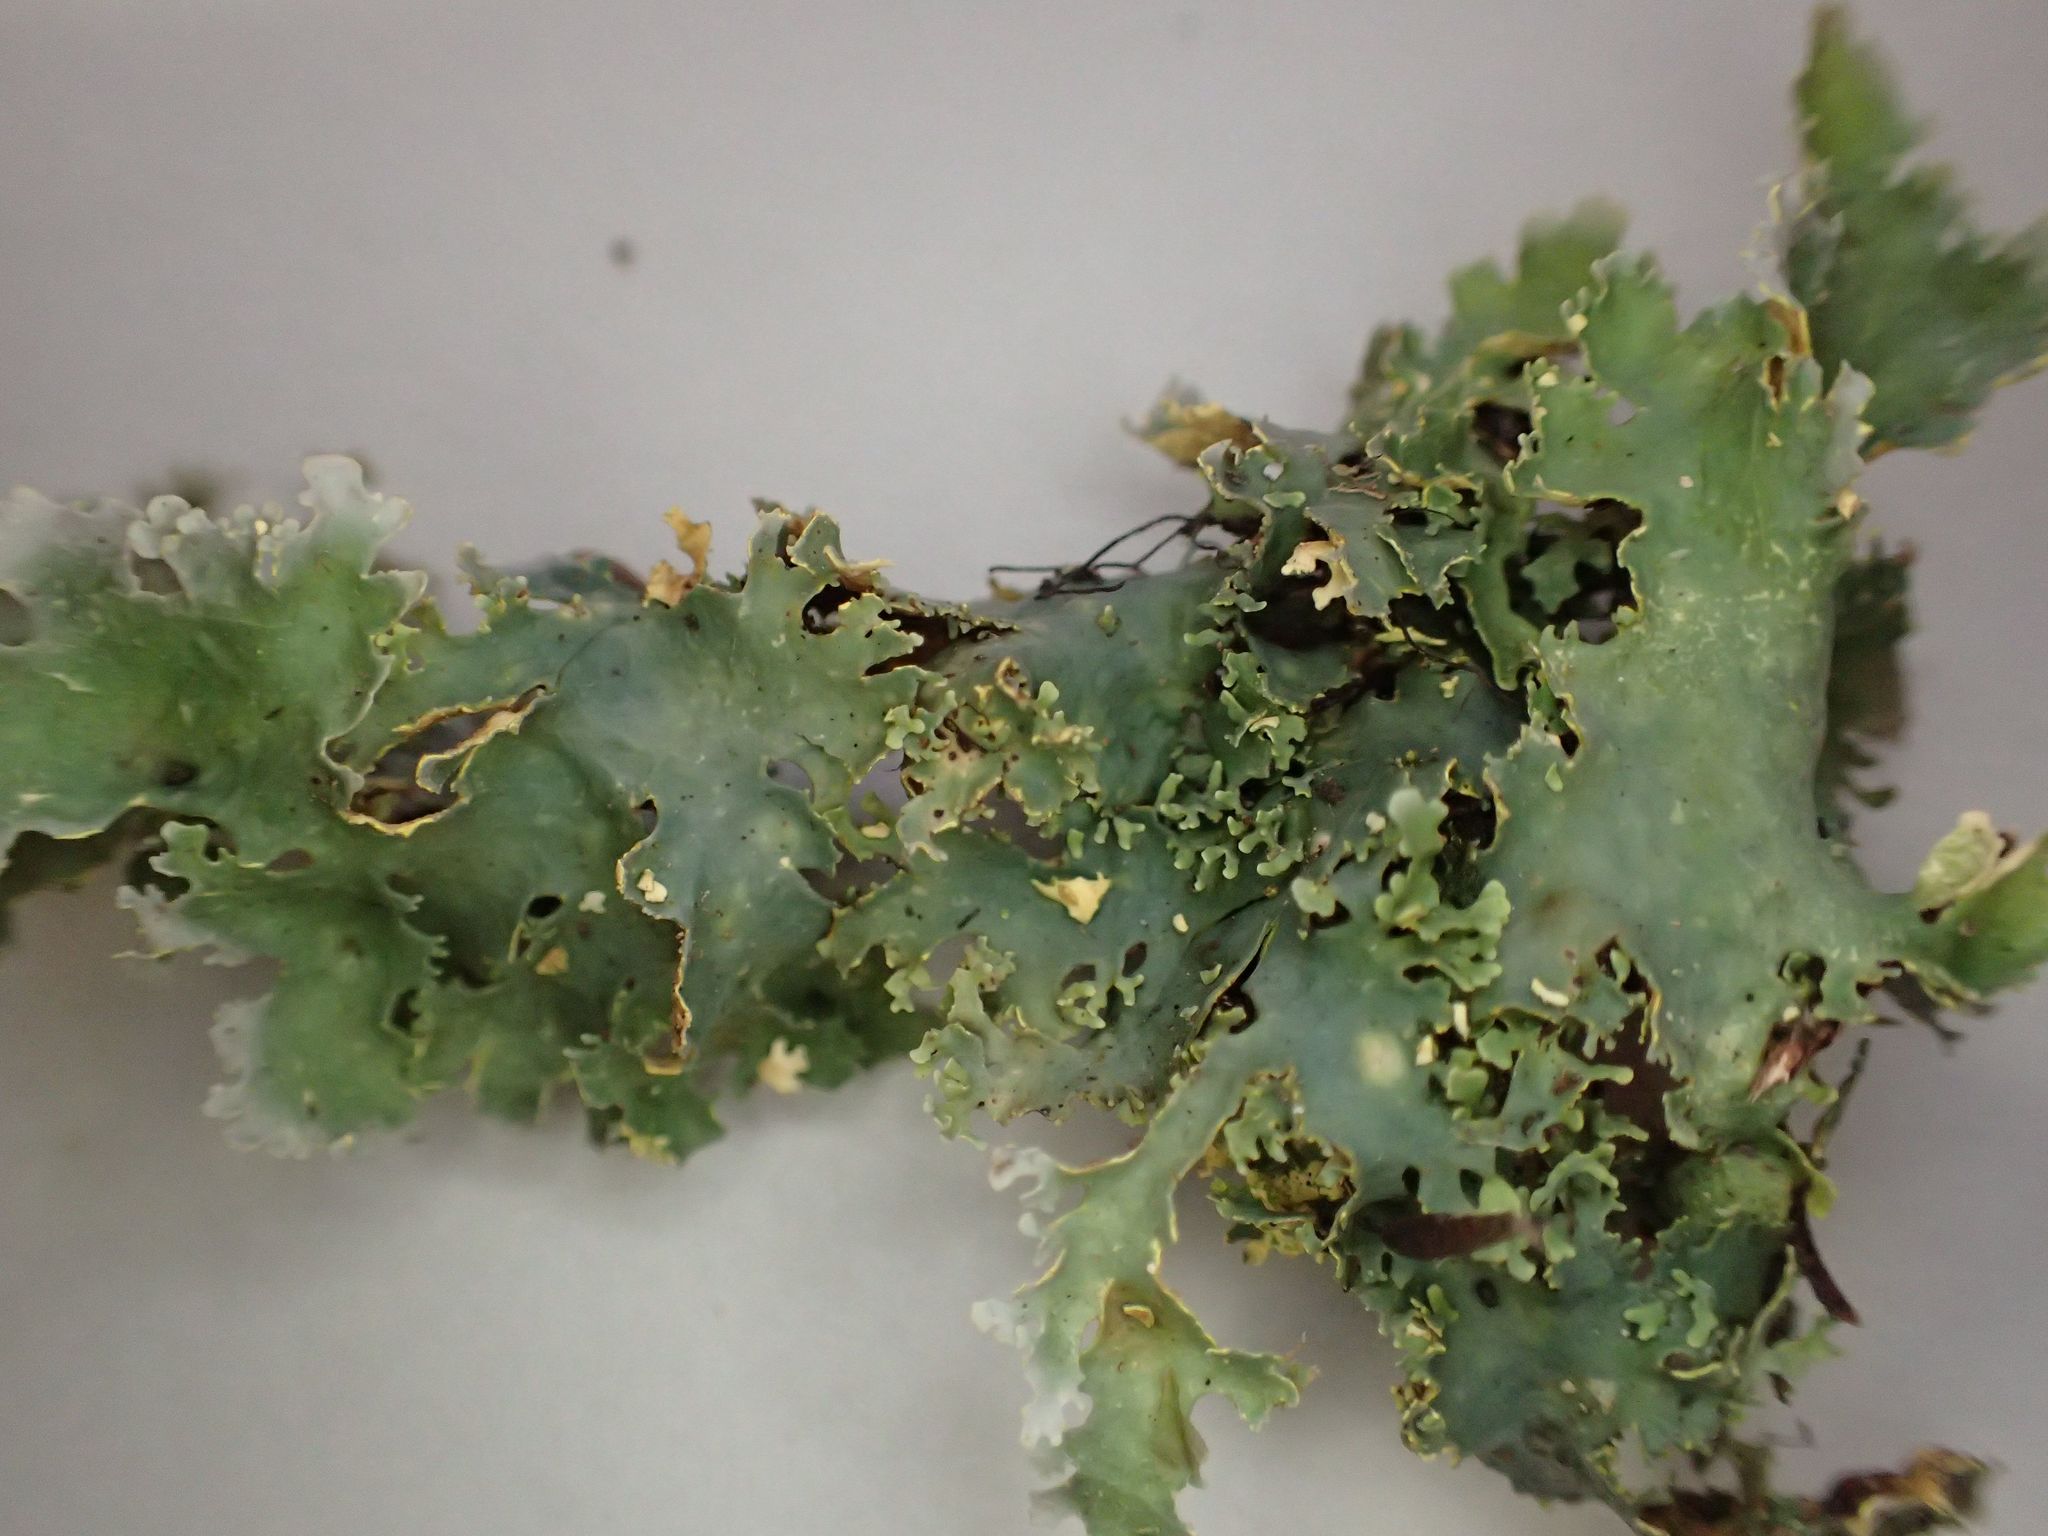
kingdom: Fungi
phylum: Ascomycota
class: Lecanoromycetes
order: Peltigerales
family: Lobariaceae
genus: Podostictina
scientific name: Podostictina pickeringii
